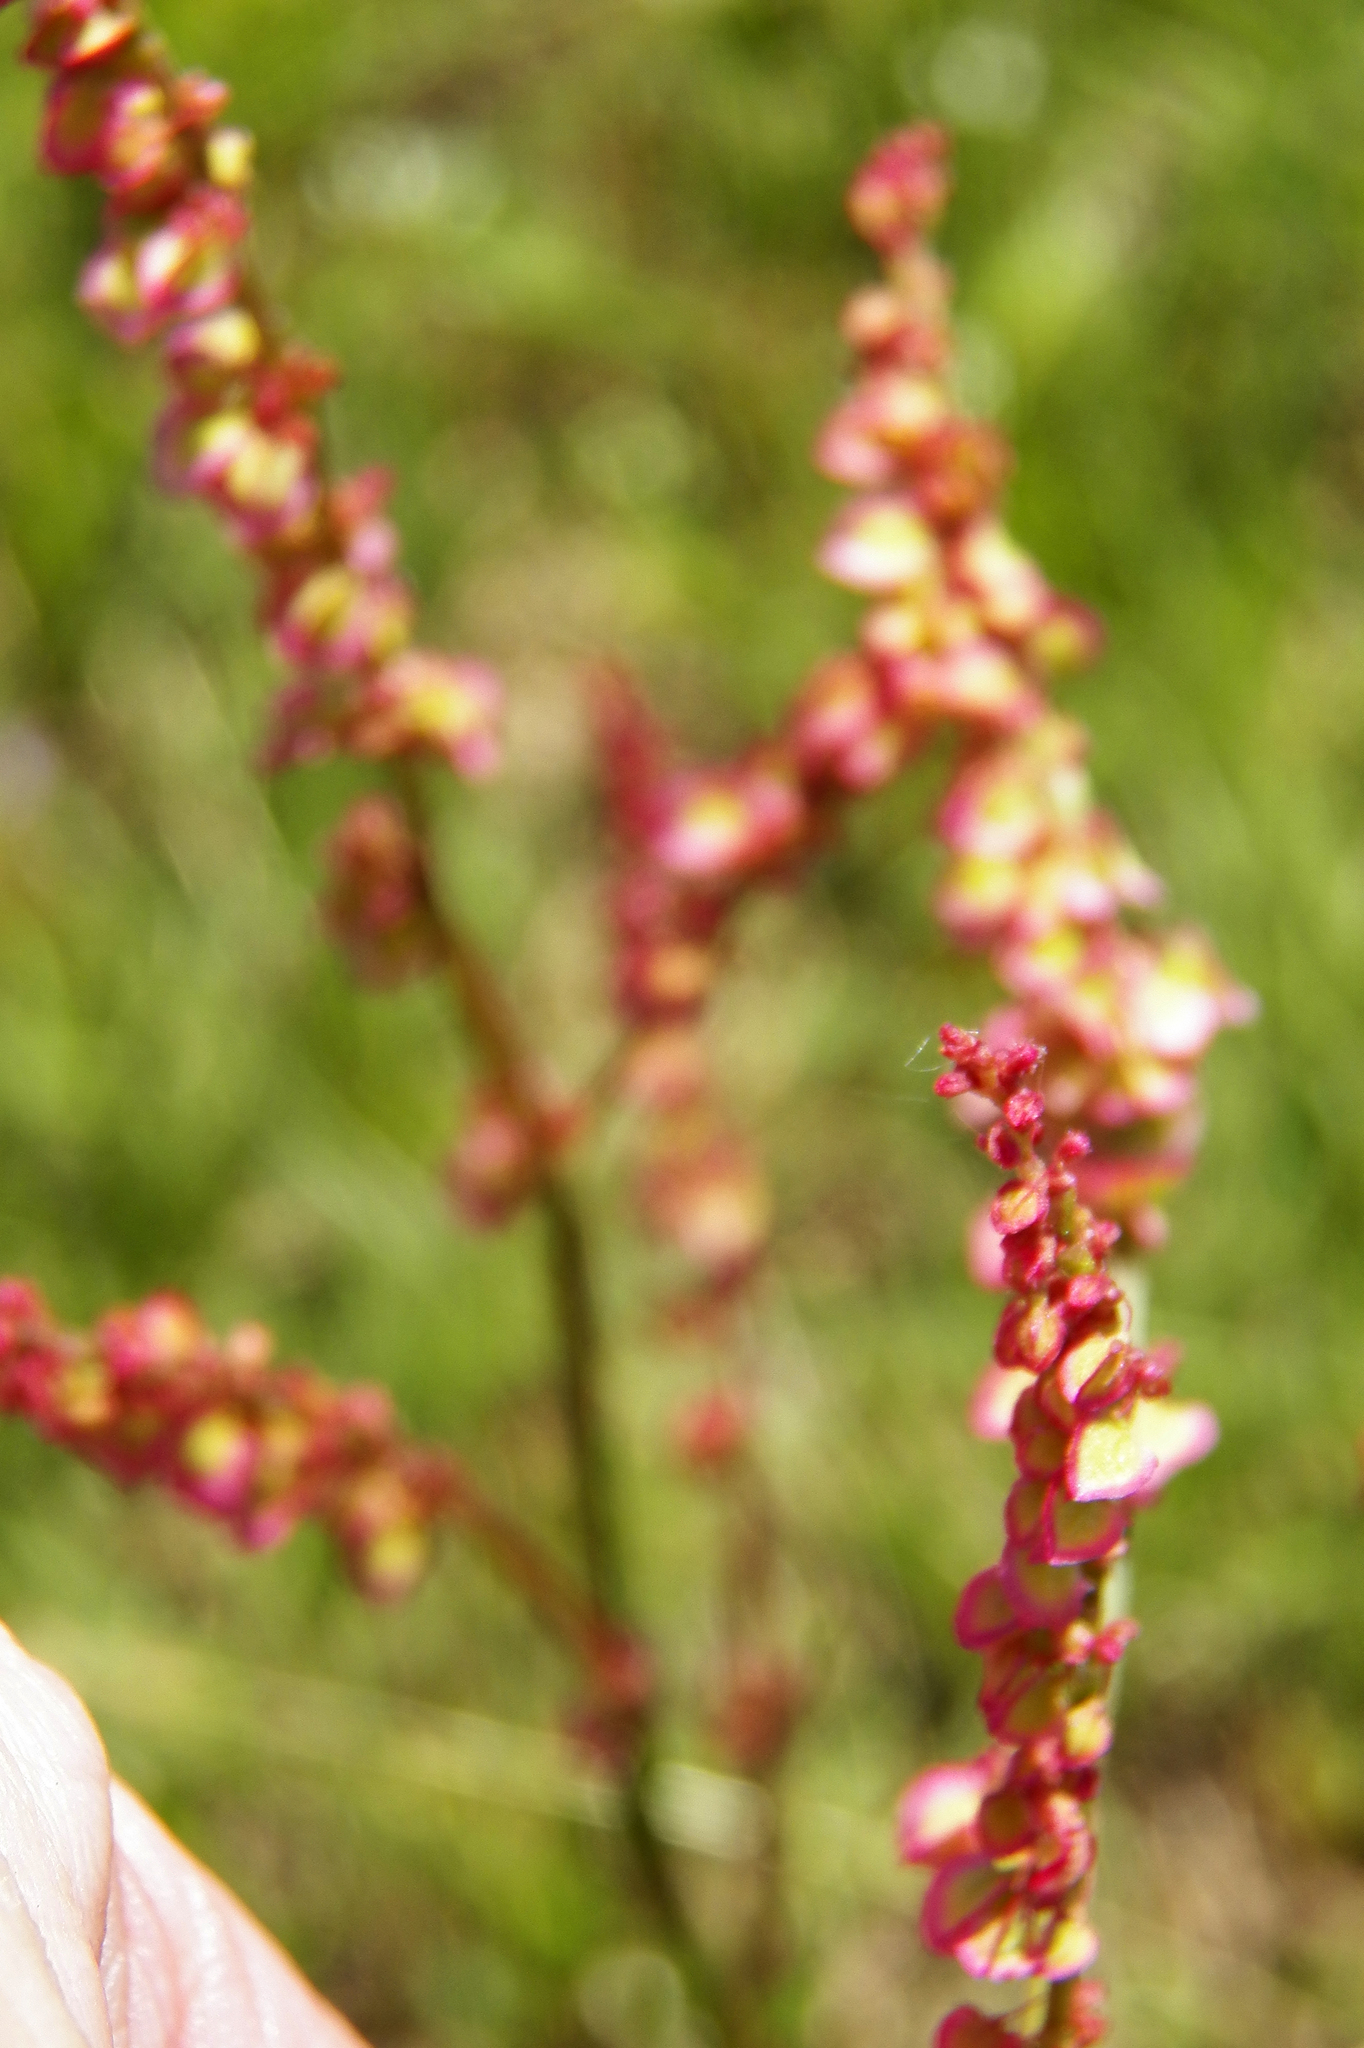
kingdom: Plantae
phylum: Tracheophyta
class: Magnoliopsida
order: Caryophyllales
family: Polygonaceae
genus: Rumex
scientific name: Rumex hastatulus
